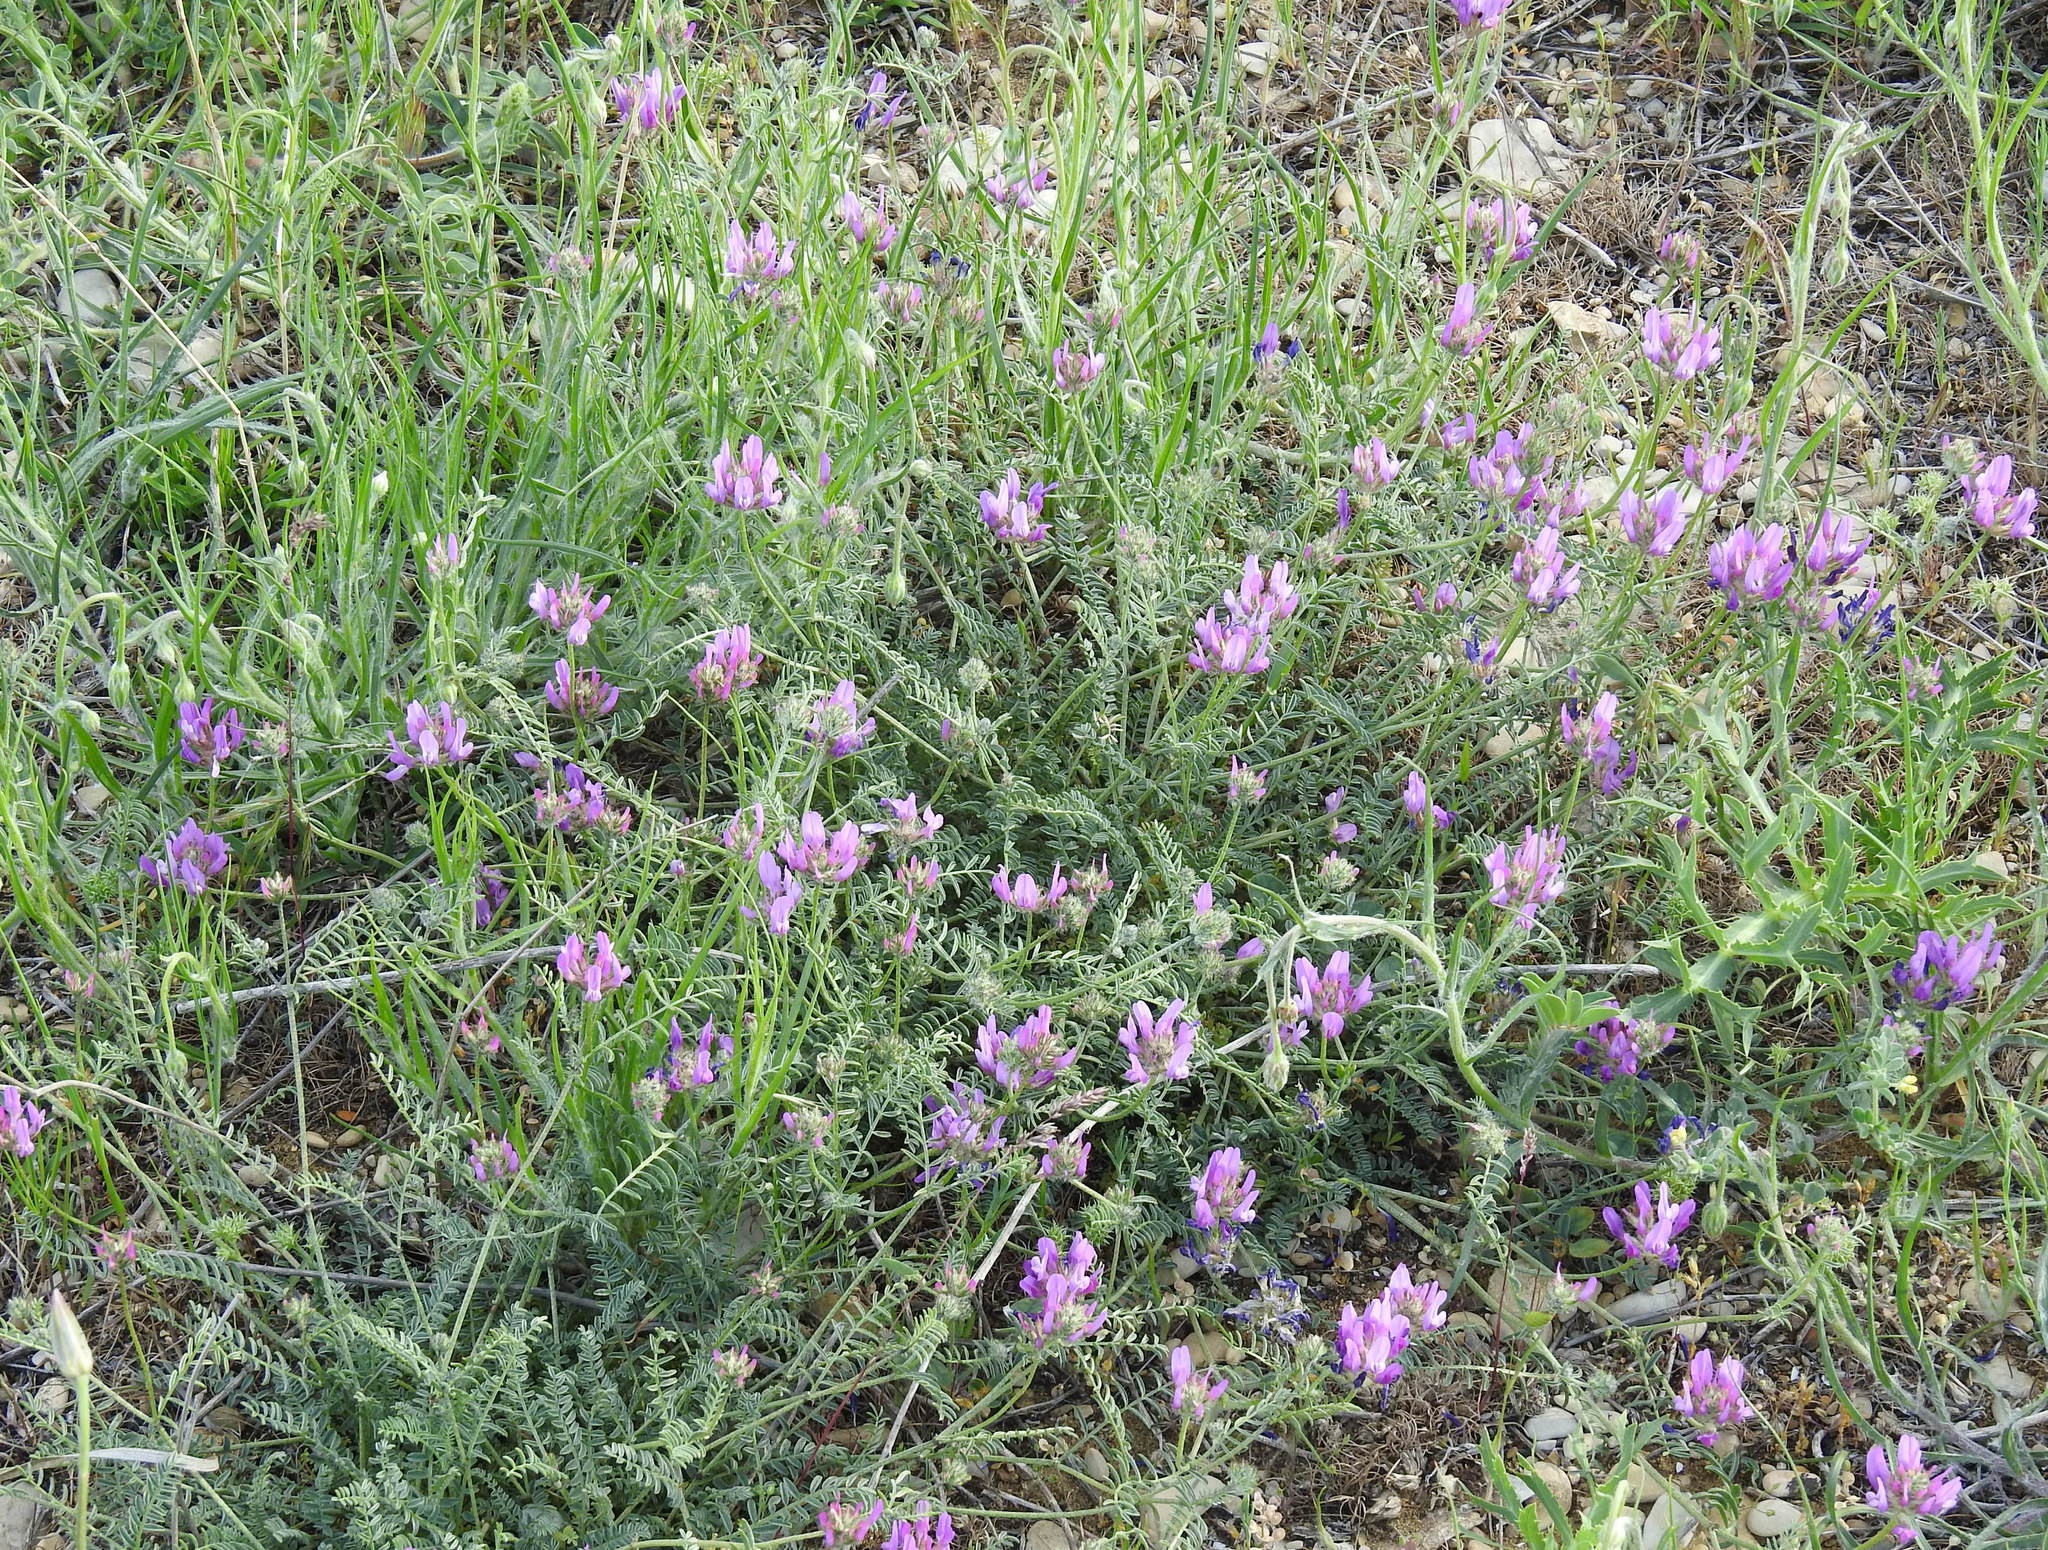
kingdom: Plantae
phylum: Tracheophyta
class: Magnoliopsida
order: Fabales
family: Fabaceae
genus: Astragalus
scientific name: Astragalus onobrychis
